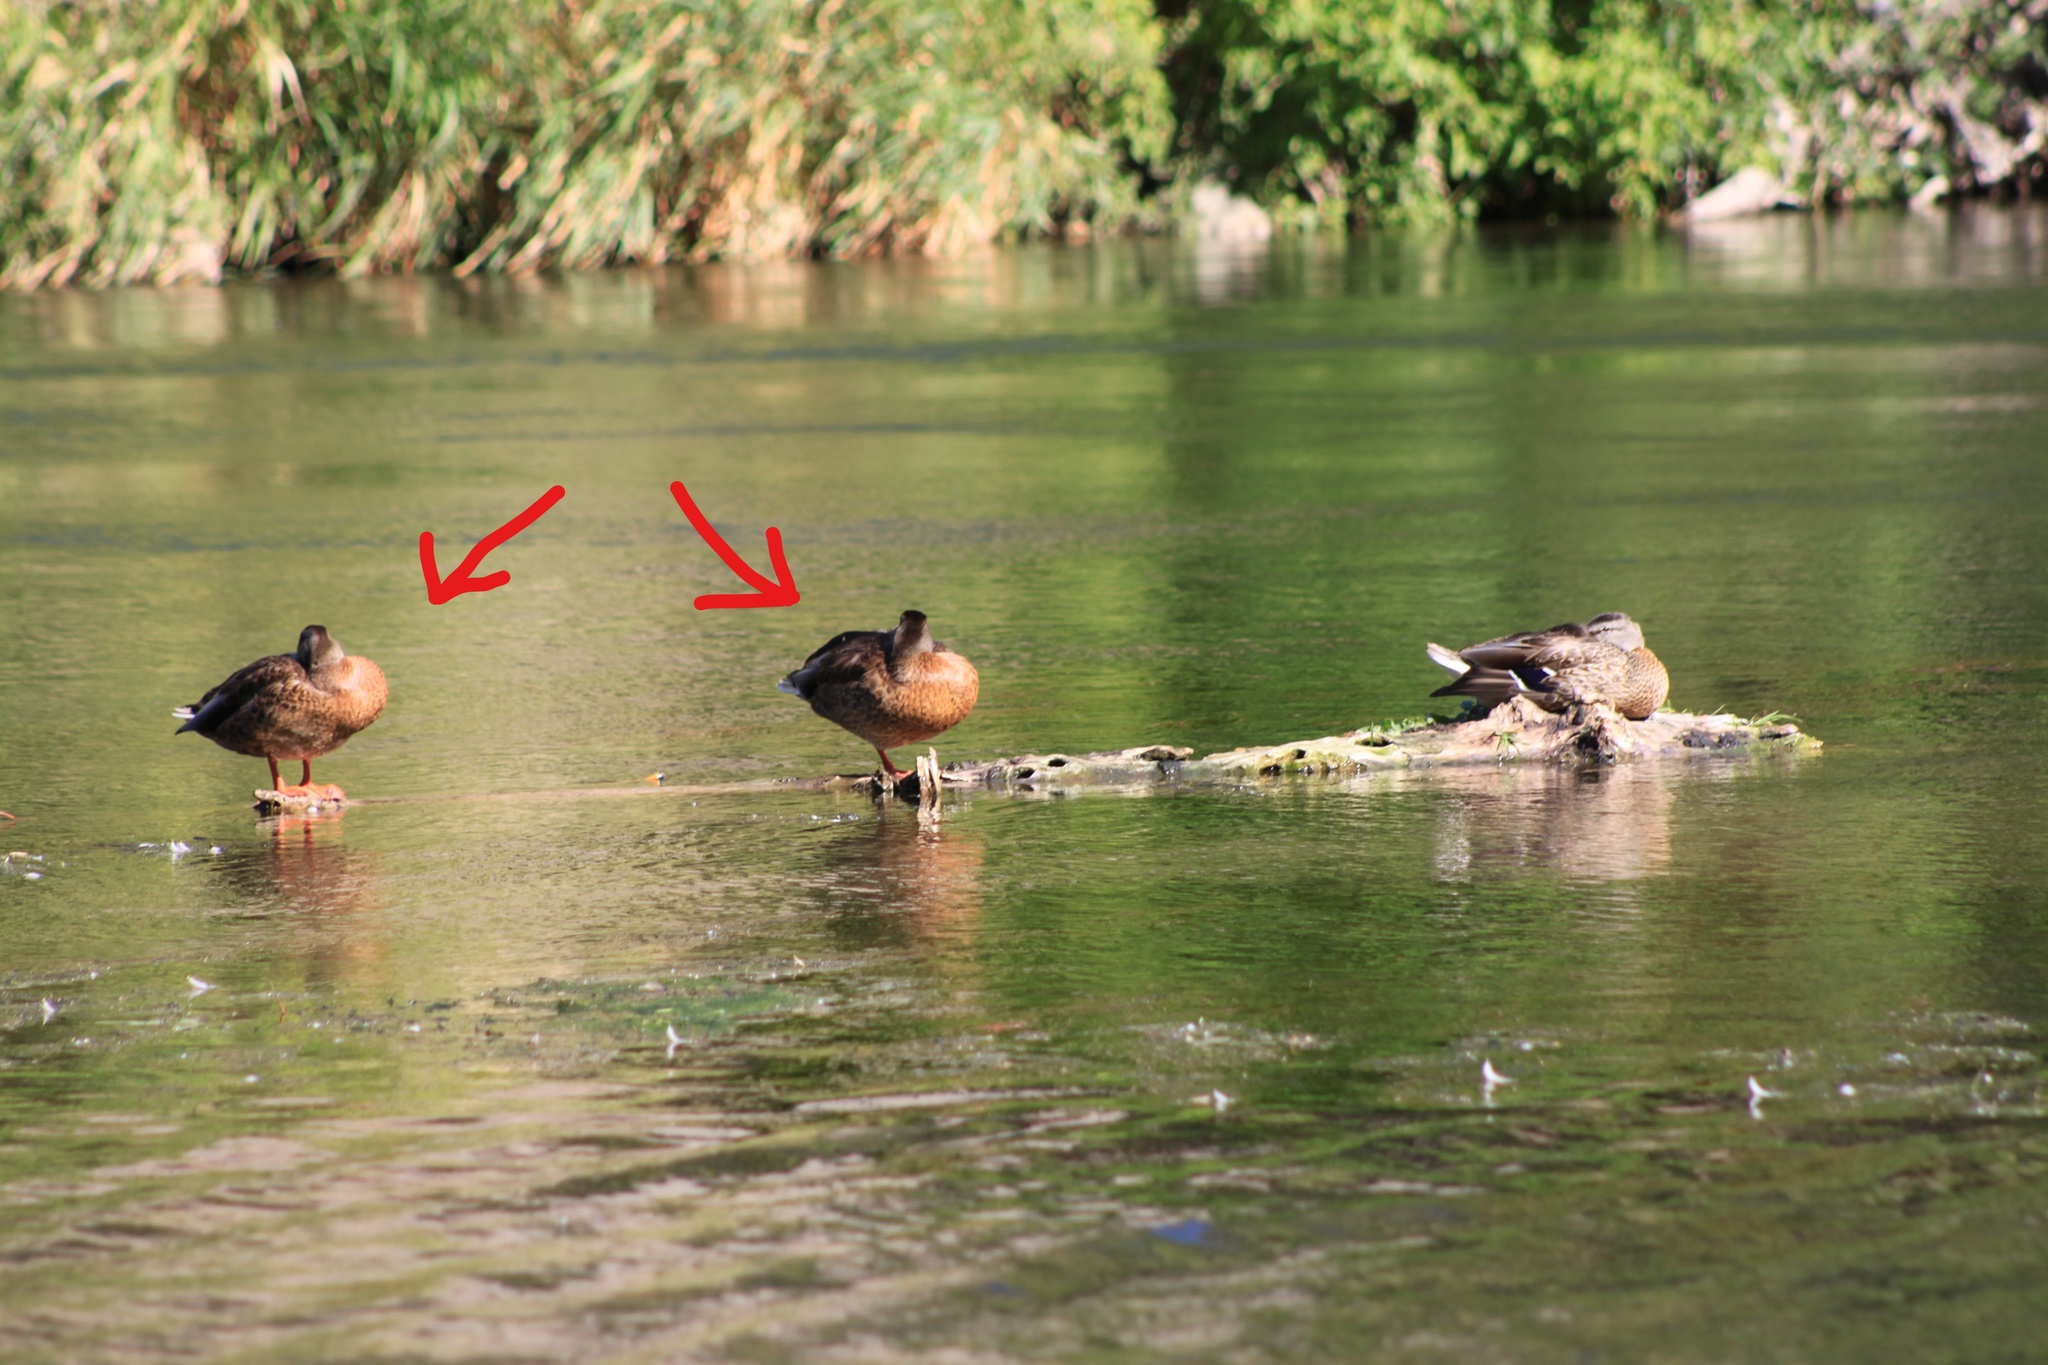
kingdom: Animalia
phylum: Chordata
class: Aves
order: Anseriformes
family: Anatidae
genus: Spatula
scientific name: Spatula cyanoptera
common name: Cinnamon teal
